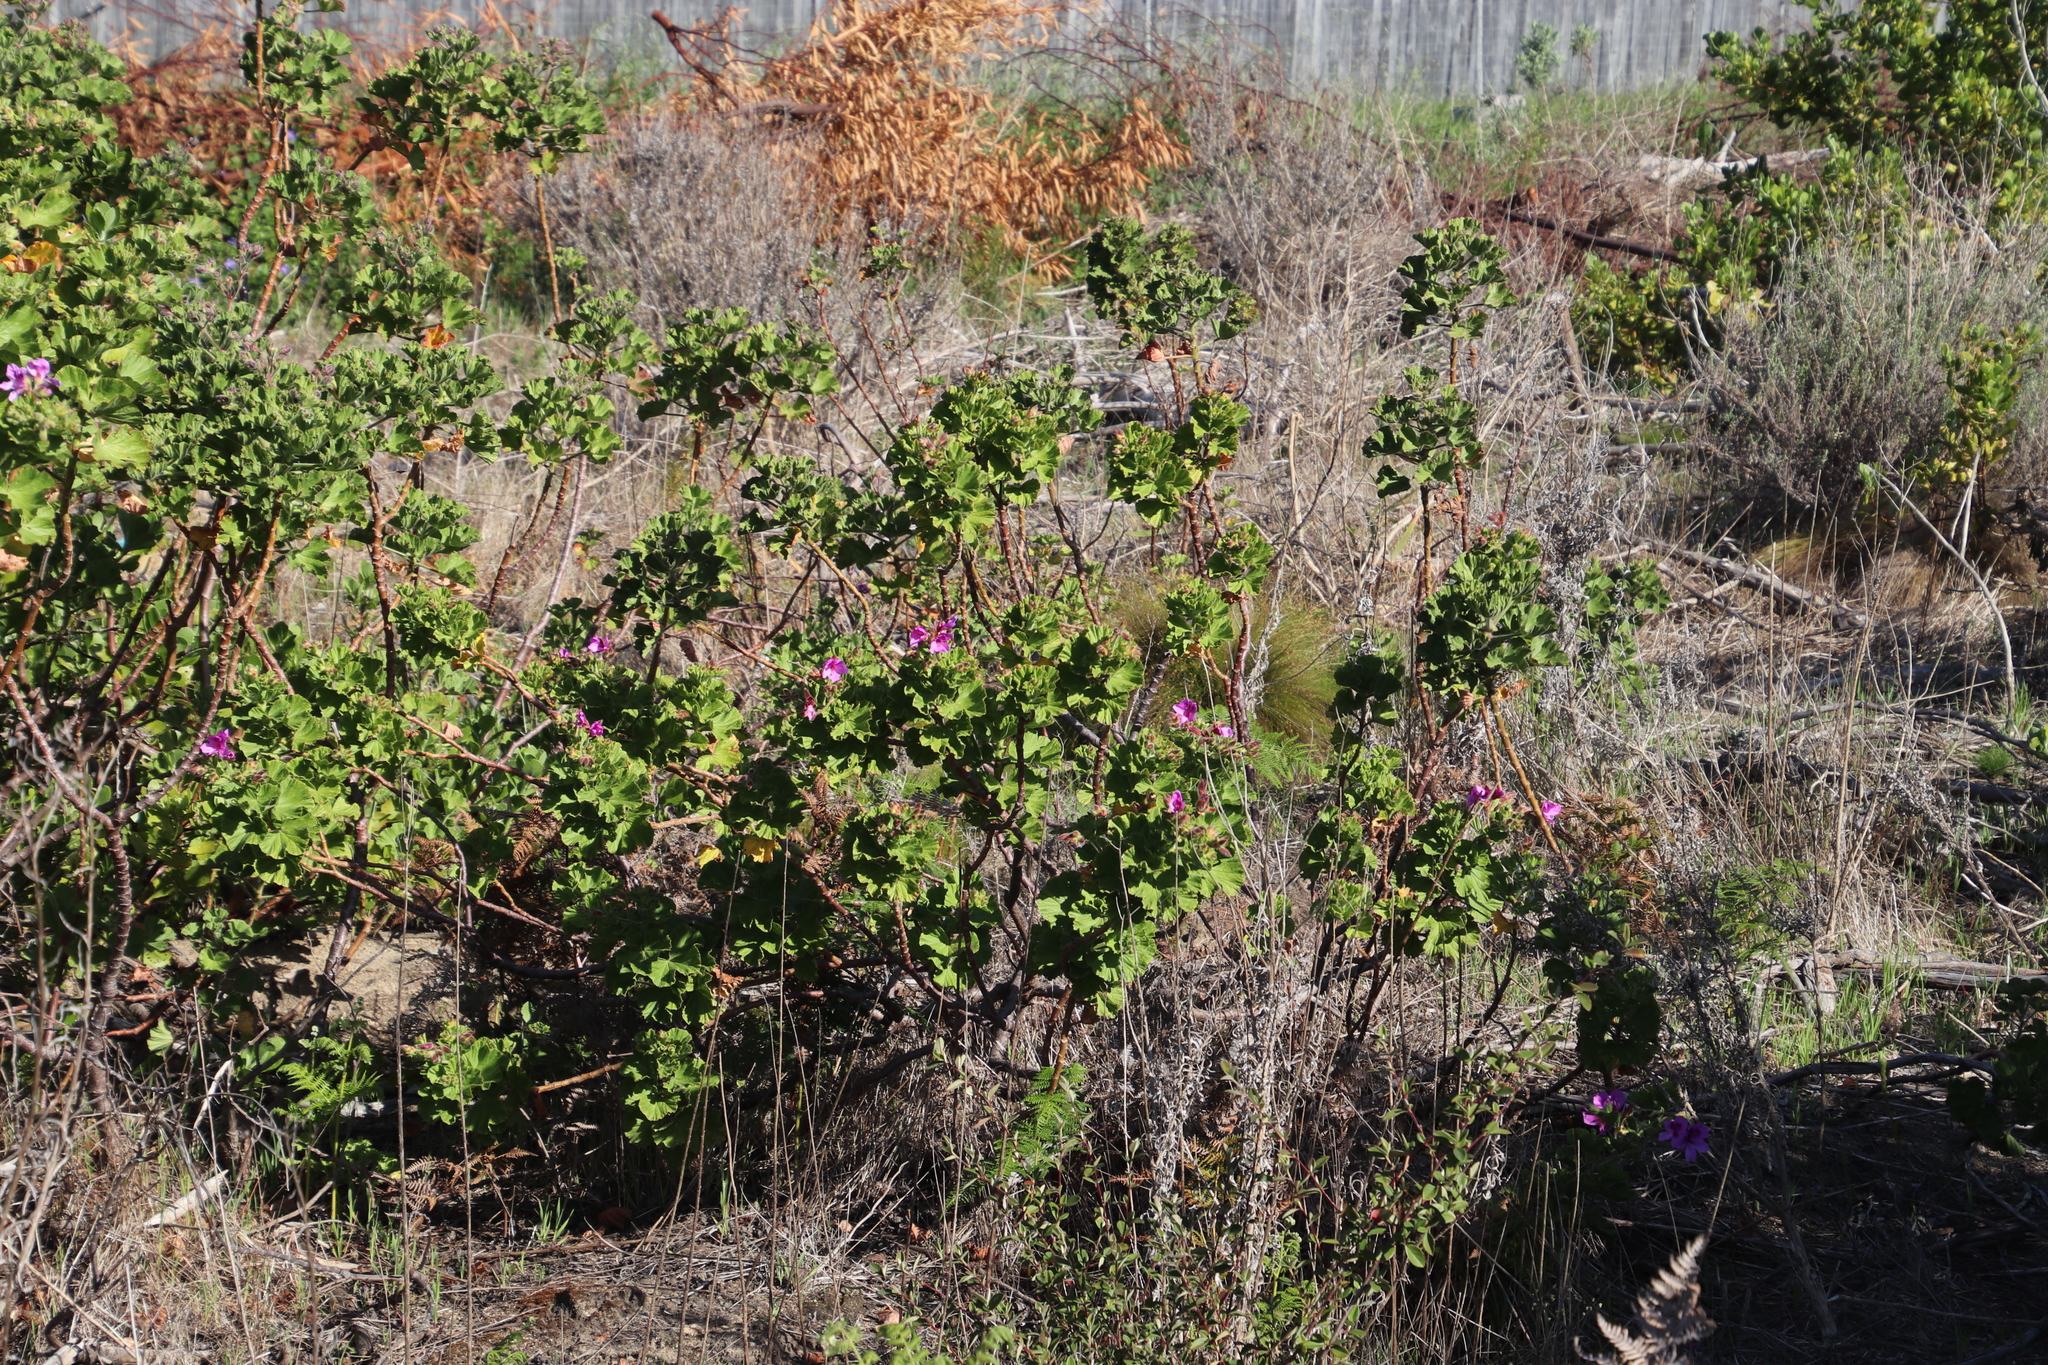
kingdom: Plantae
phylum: Tracheophyta
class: Magnoliopsida
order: Geraniales
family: Geraniaceae
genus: Pelargonium
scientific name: Pelargonium cucullatum
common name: Tree pelargonium
